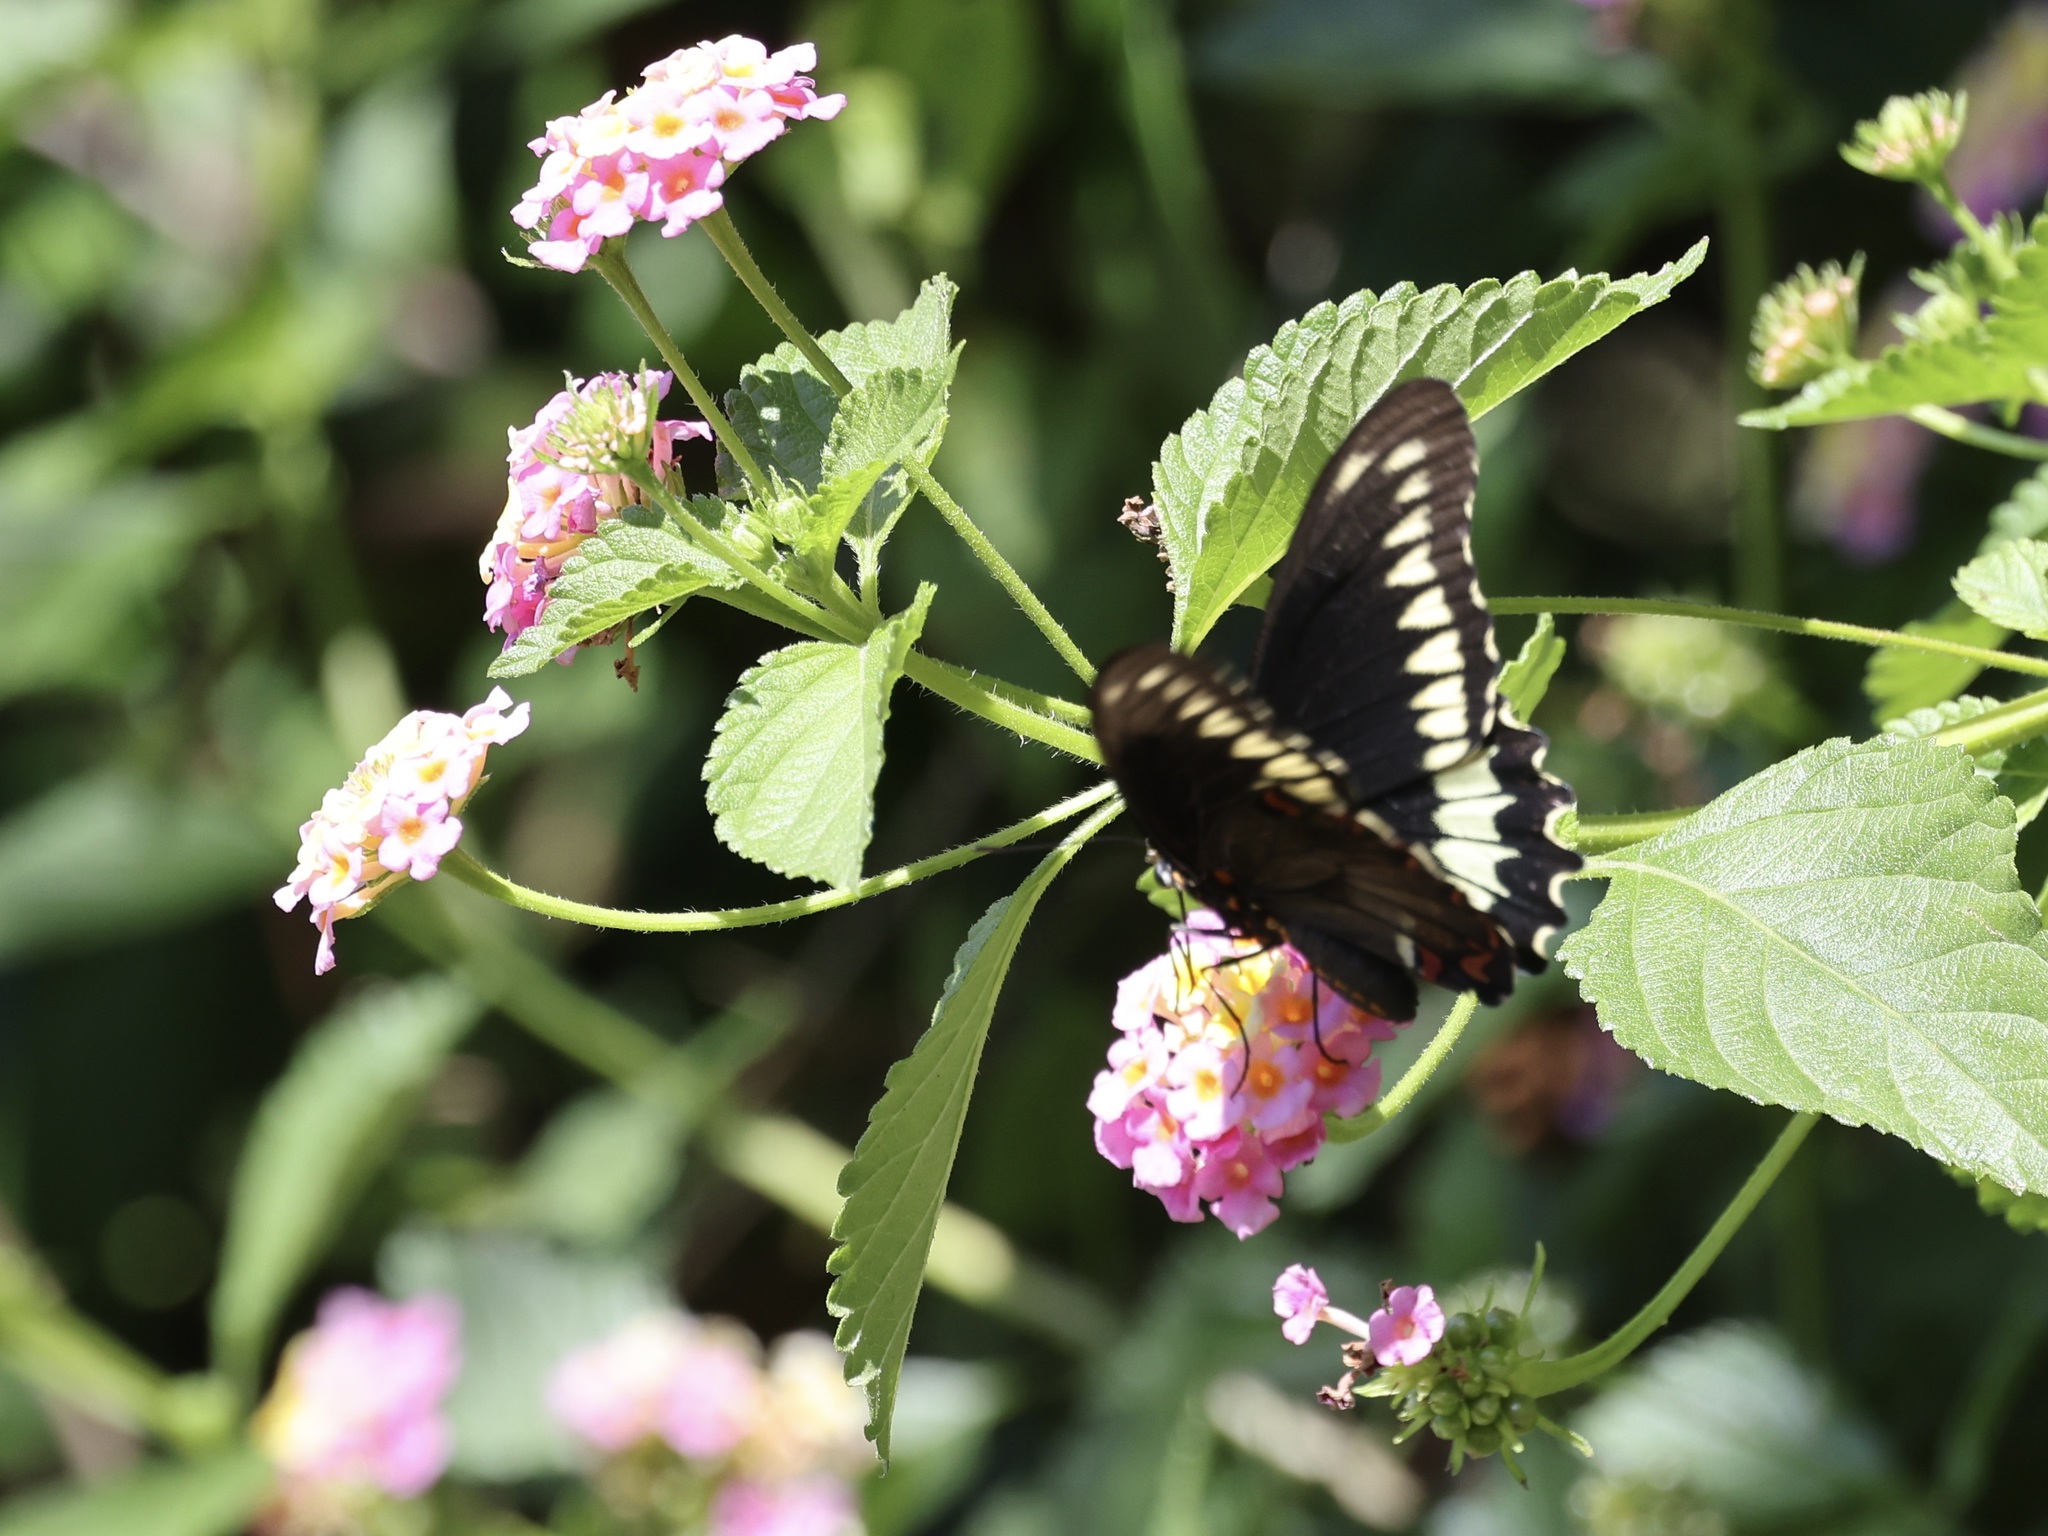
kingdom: Animalia
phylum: Arthropoda
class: Insecta
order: Lepidoptera
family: Papilionidae
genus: Battus
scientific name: Battus polydamas
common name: Polydamas swallowtail
